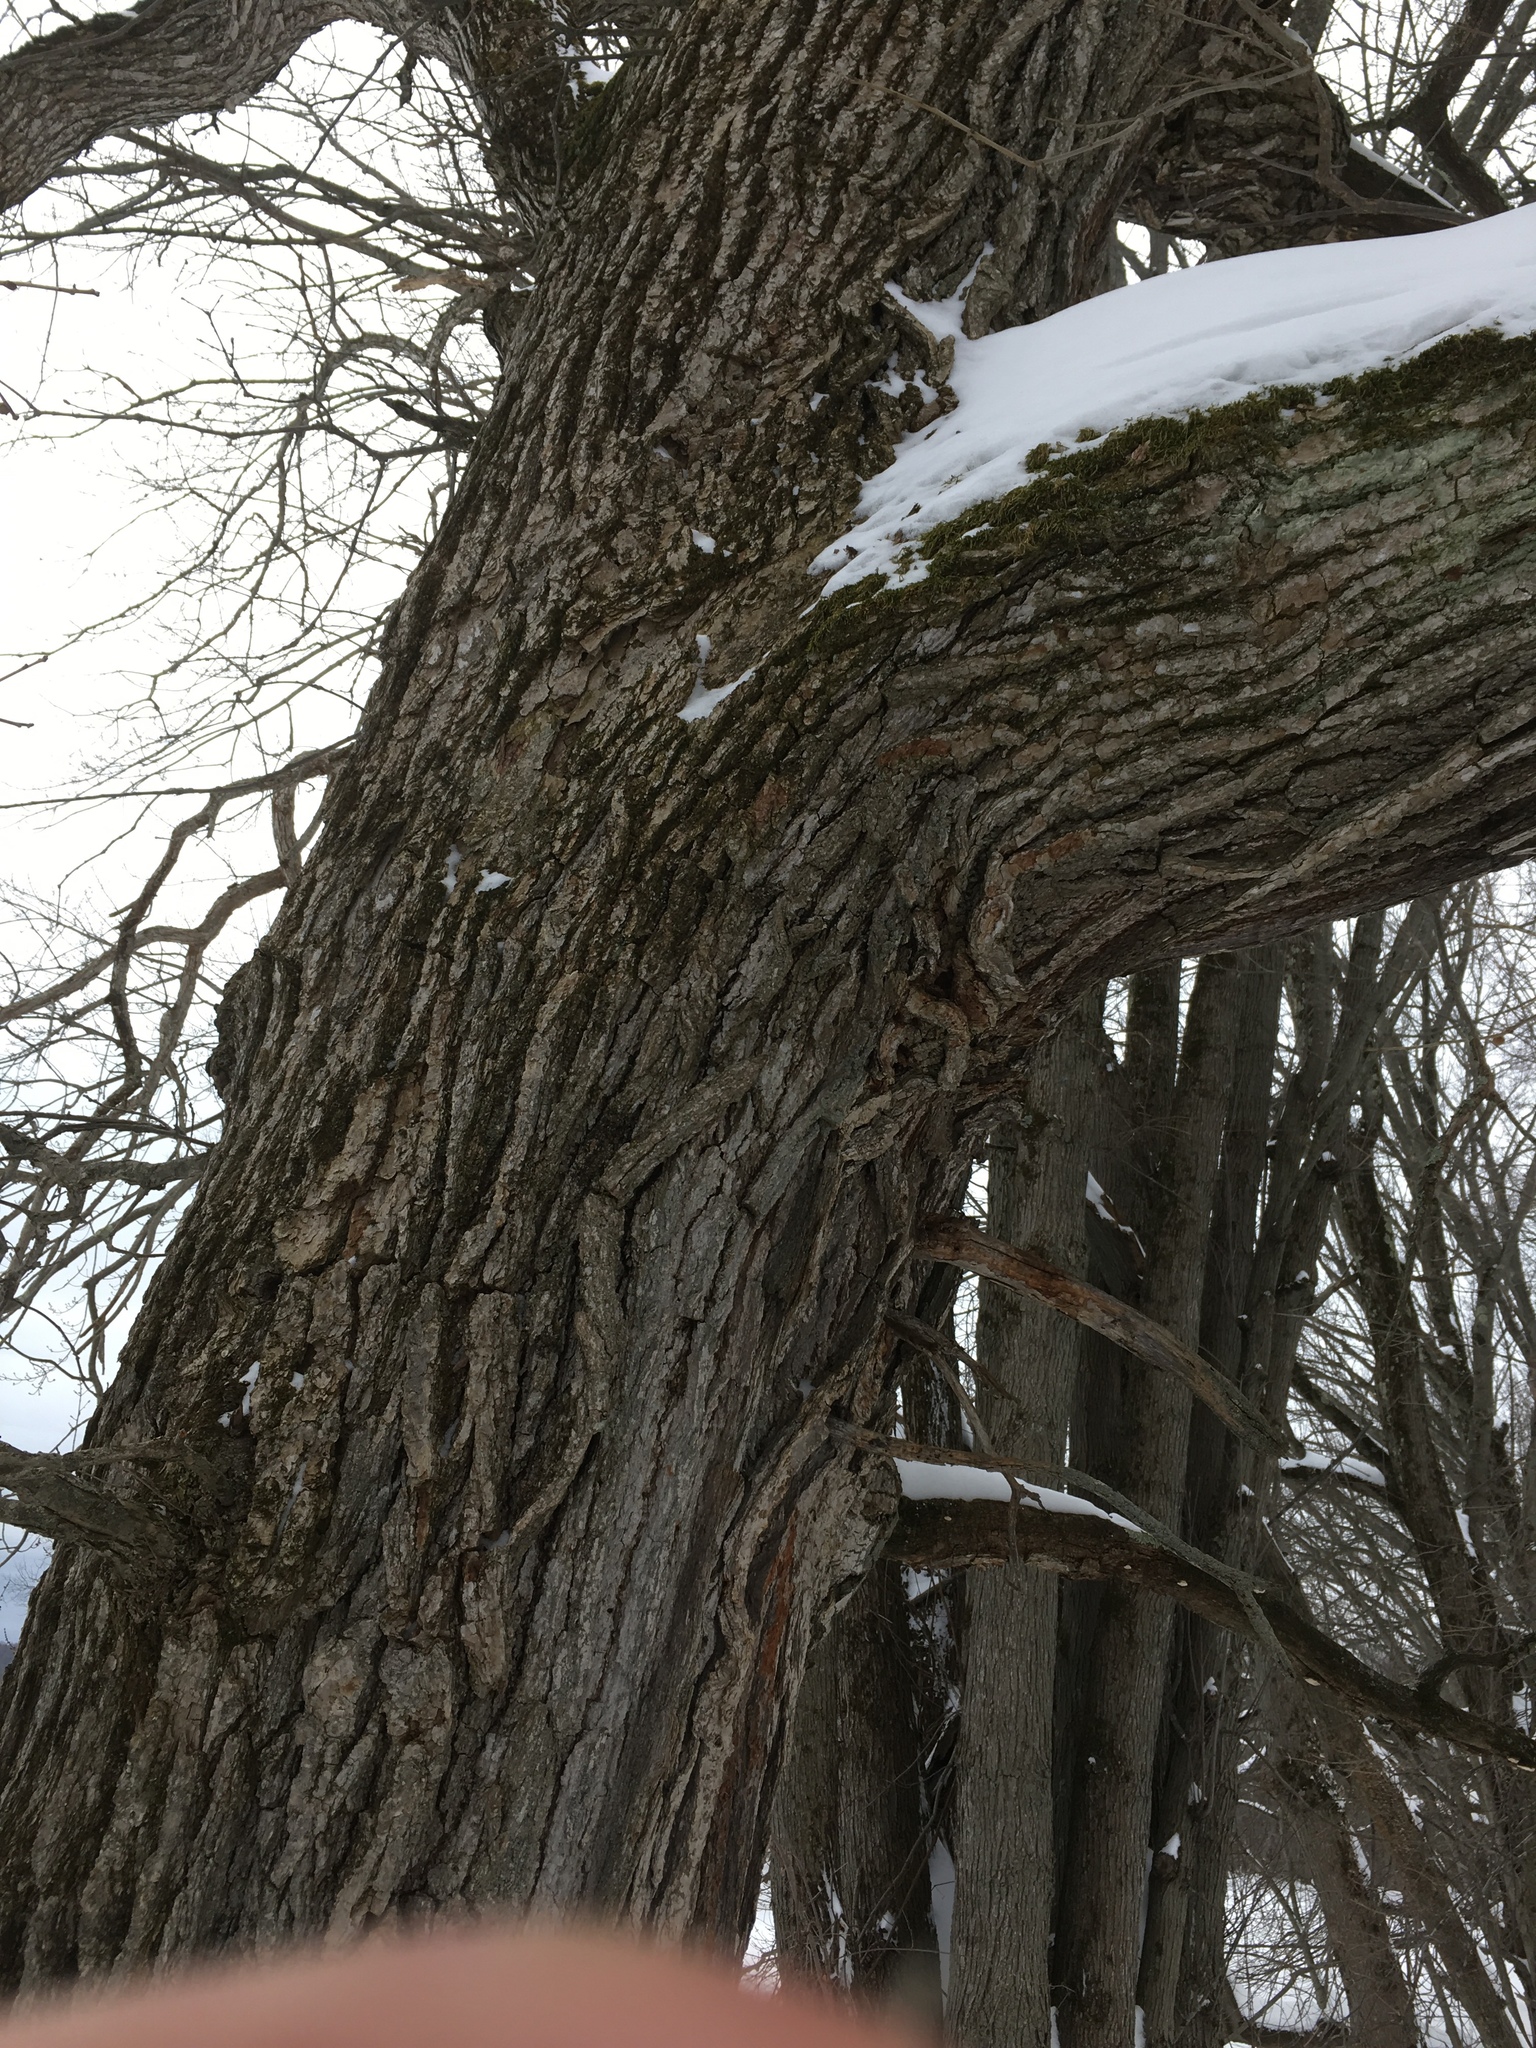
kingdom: Plantae
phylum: Tracheophyta
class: Magnoliopsida
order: Fagales
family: Fagaceae
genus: Quercus
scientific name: Quercus bicolor
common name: Swamp white oak
